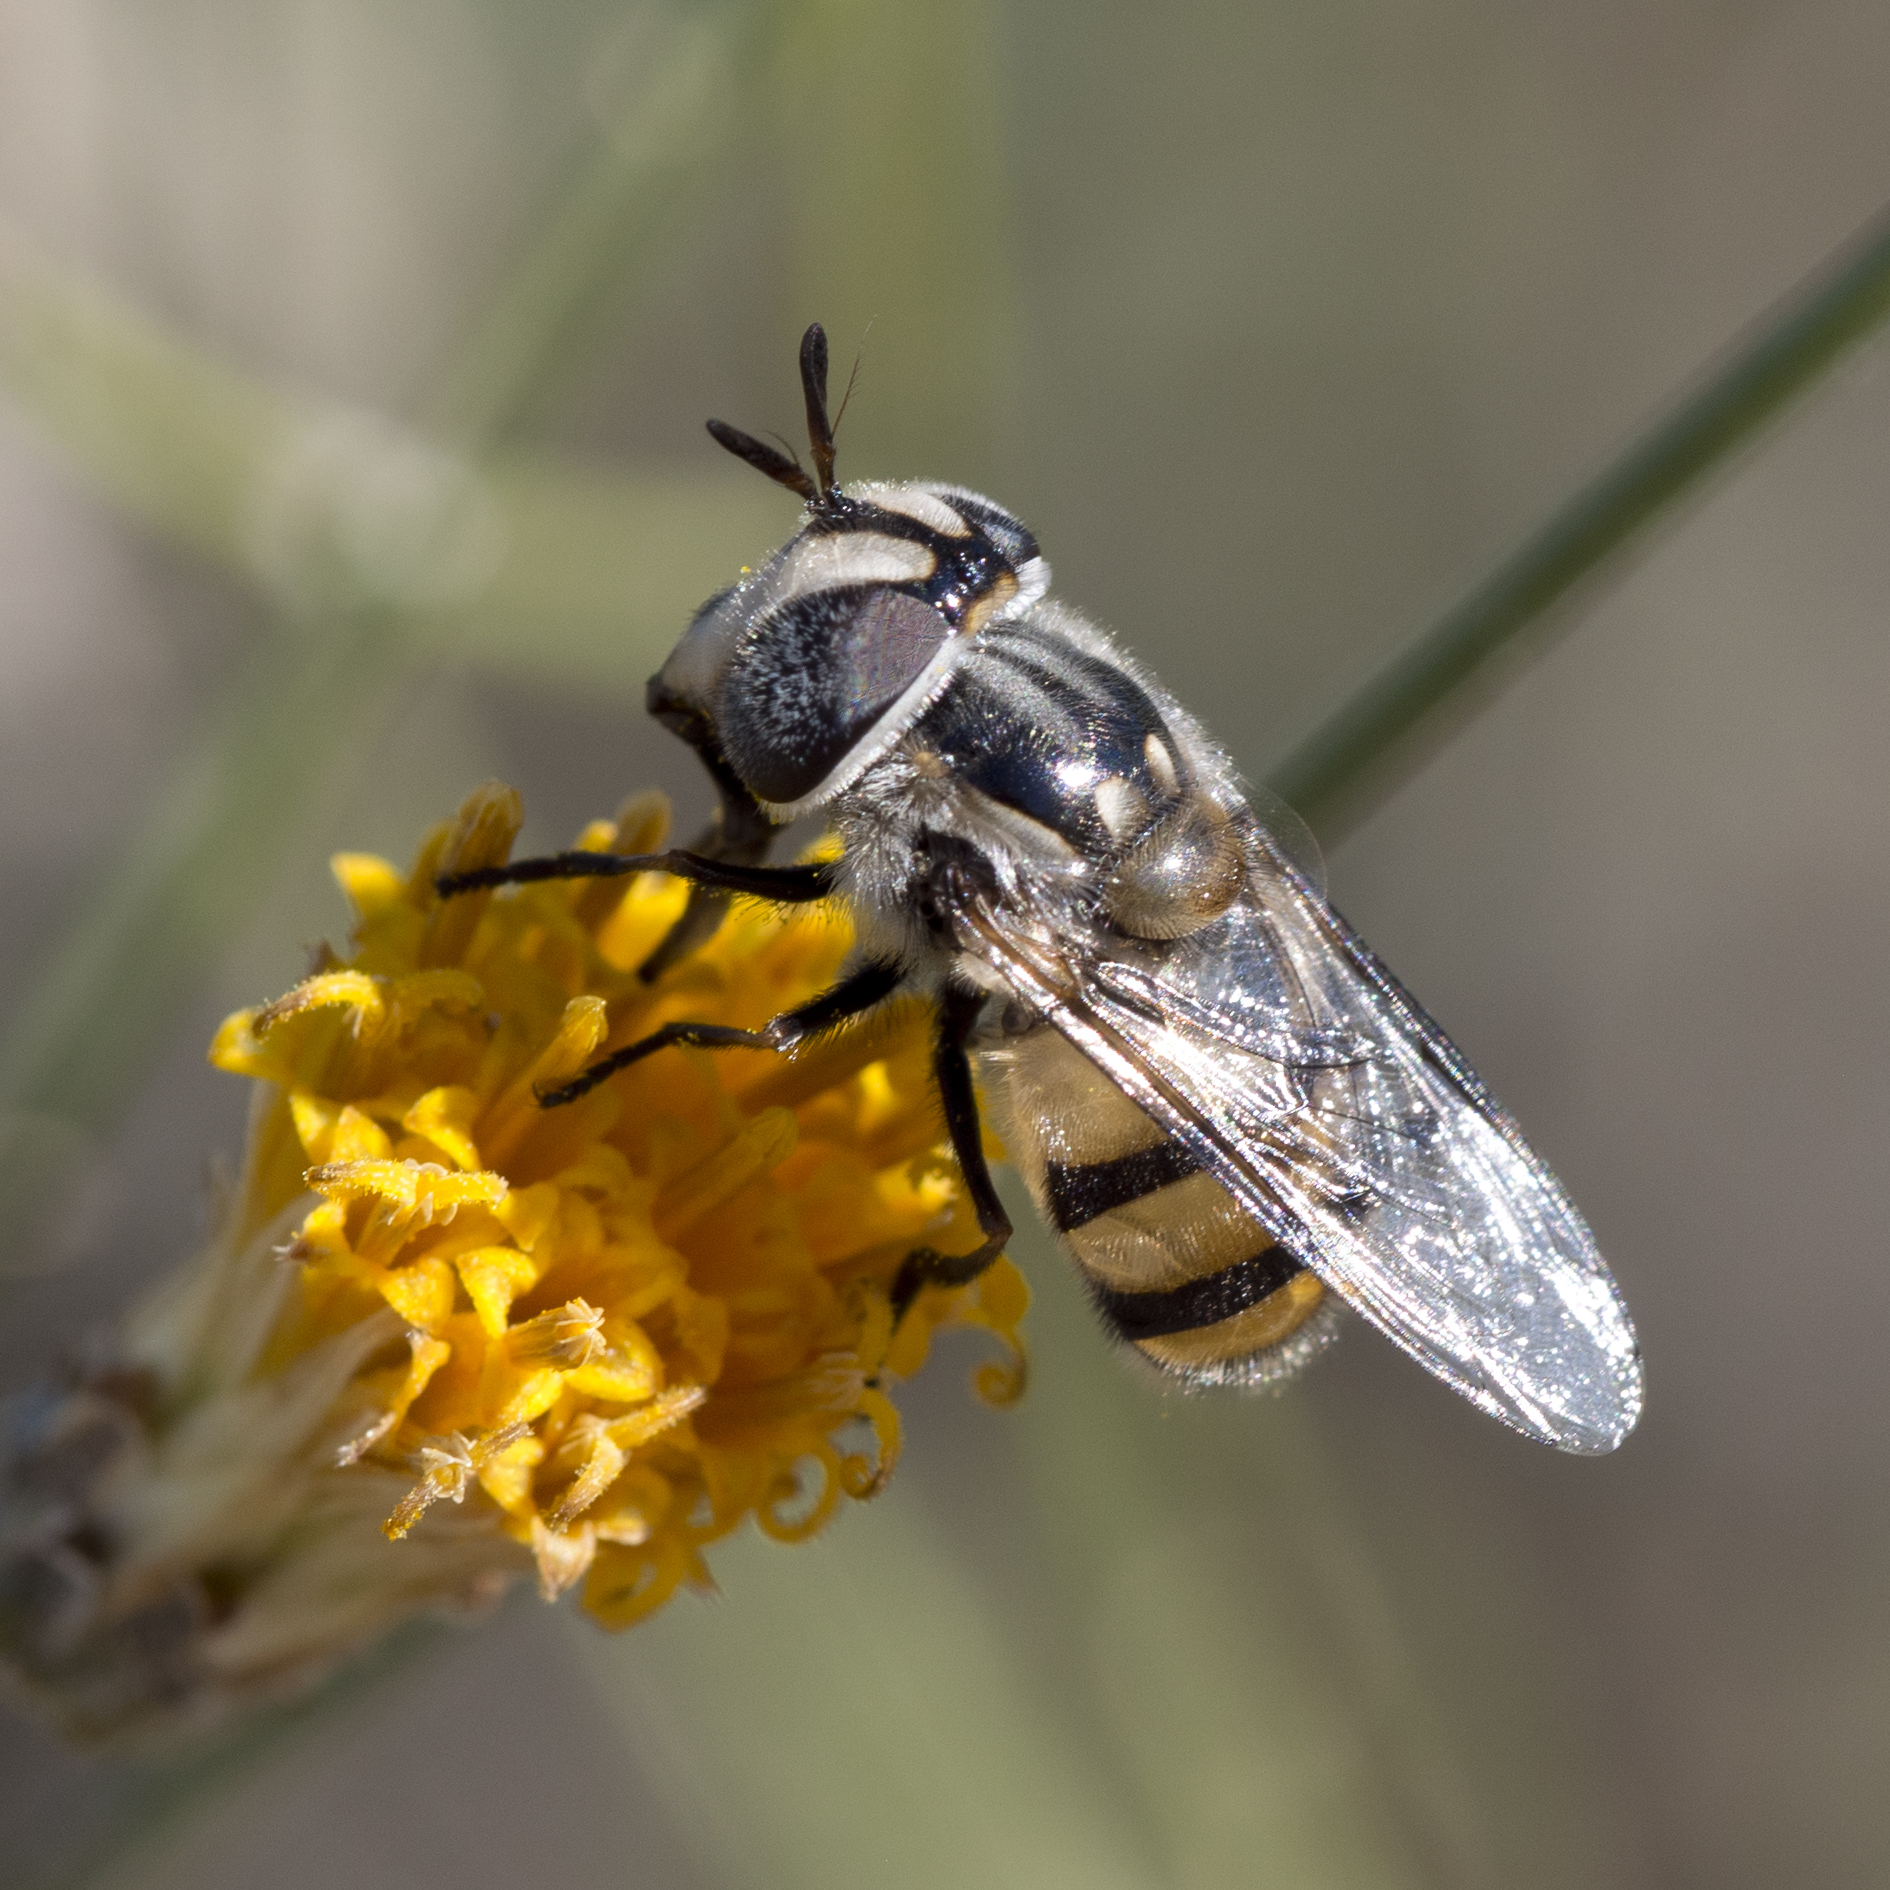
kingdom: Animalia
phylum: Arthropoda
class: Insecta
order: Diptera
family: Syrphidae
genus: Copestylum
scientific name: Copestylum fornax
